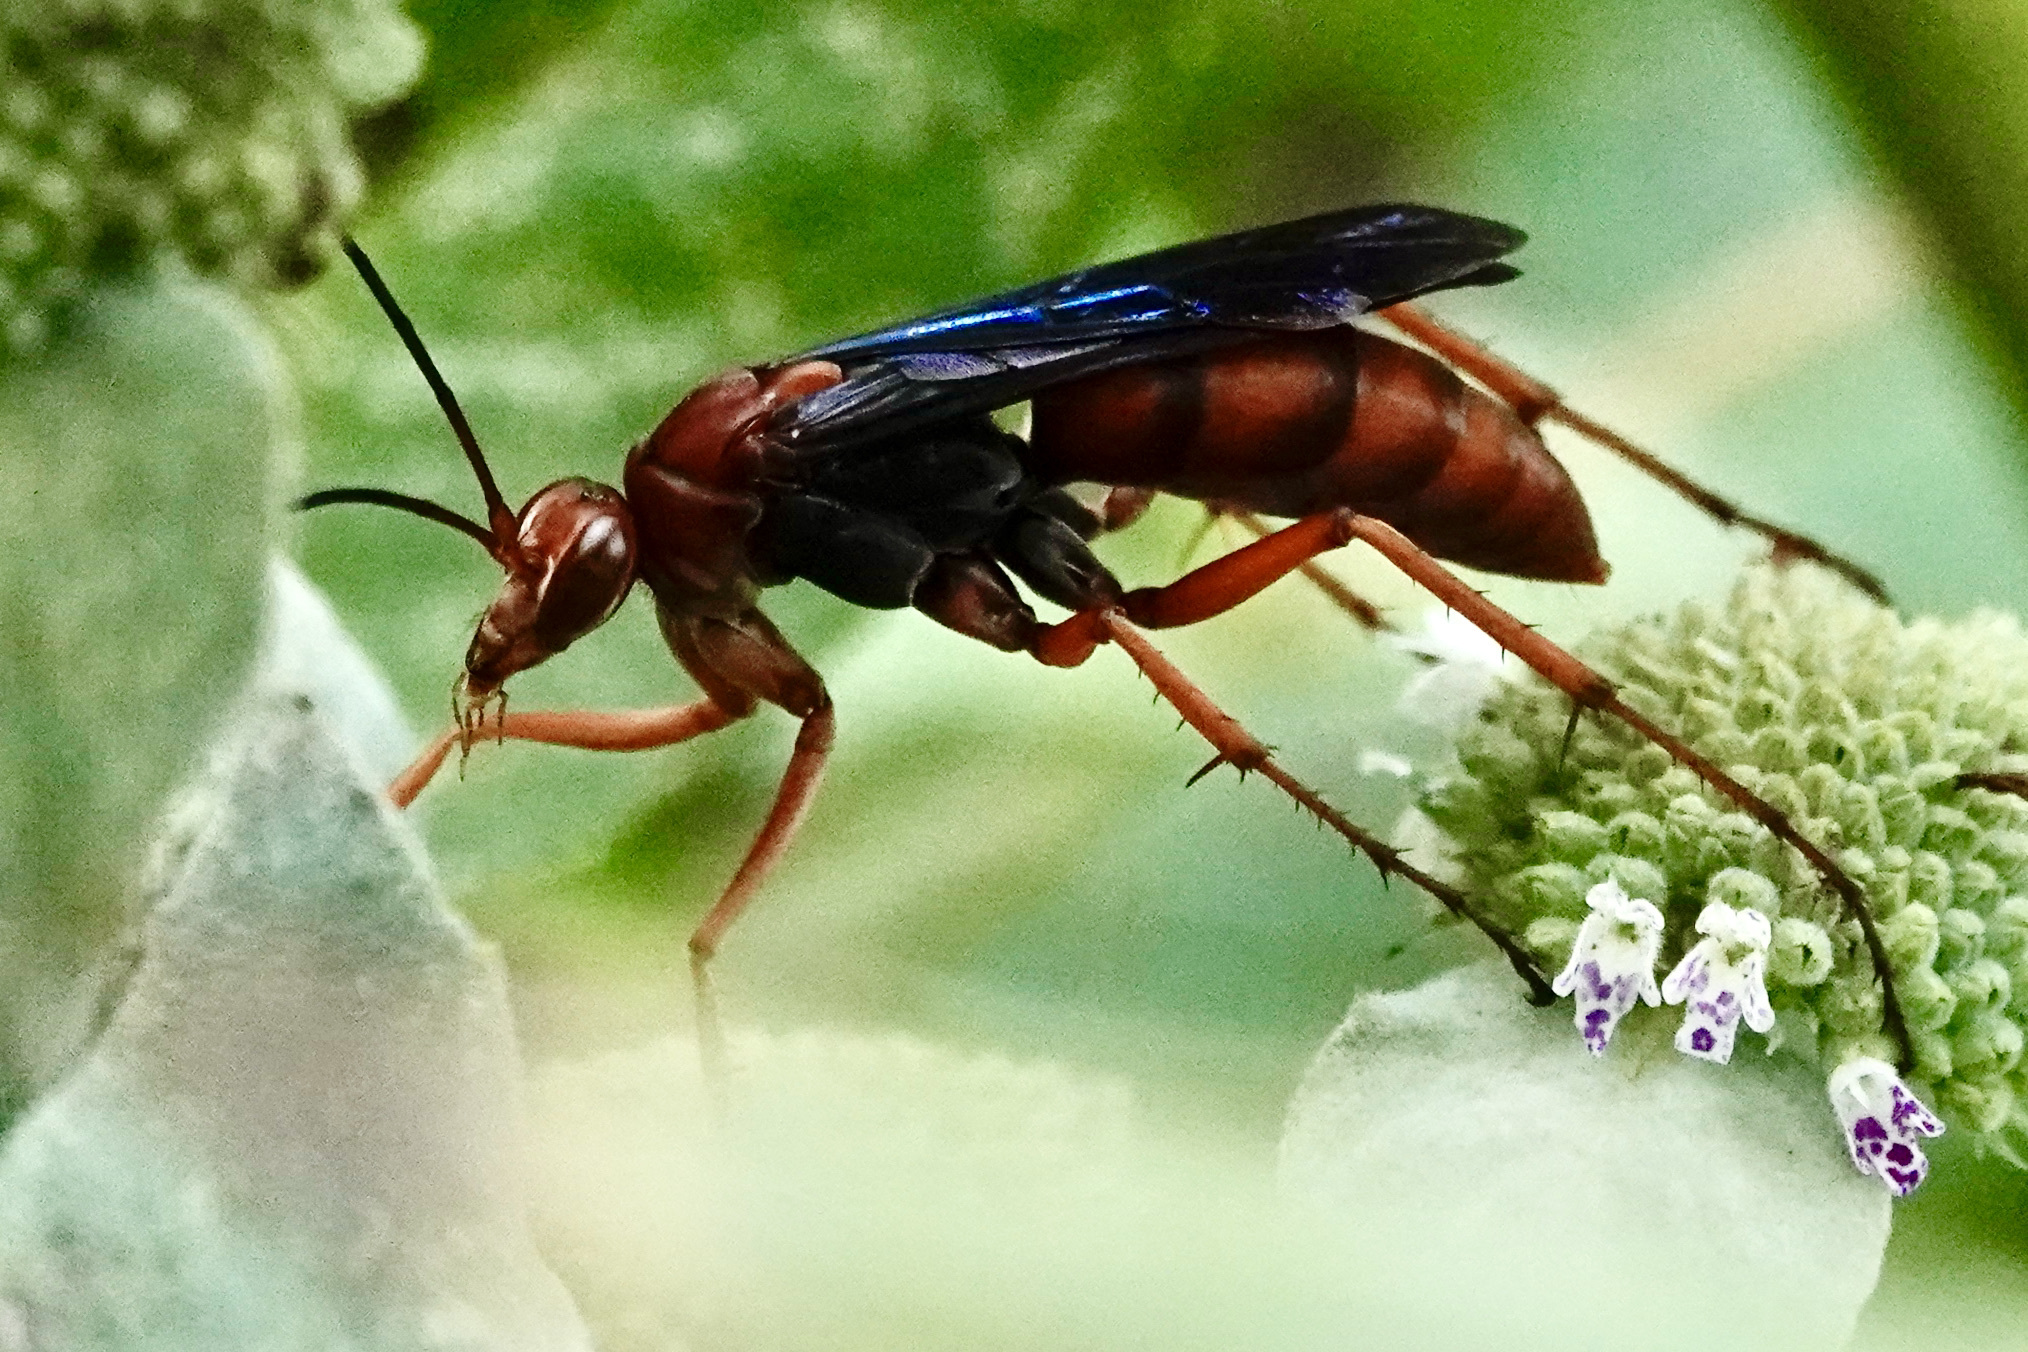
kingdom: Animalia
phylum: Arthropoda
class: Insecta
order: Hymenoptera
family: Pompilidae
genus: Tachypompilus
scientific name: Tachypompilus ferrugineus
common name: Rusty spider wasp
